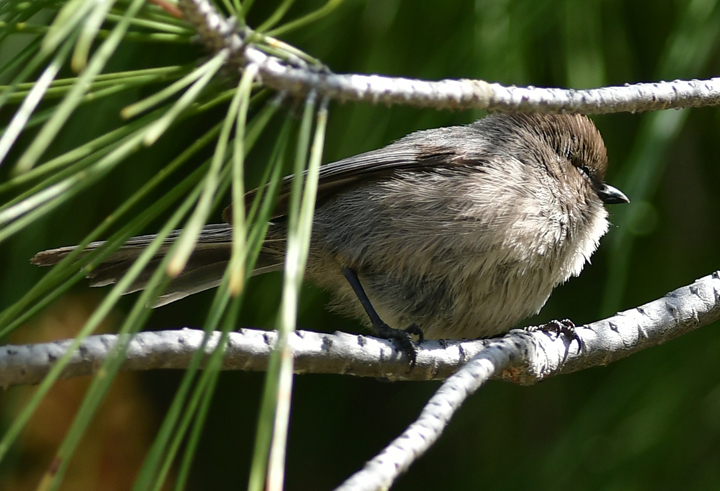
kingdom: Animalia
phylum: Chordata
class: Aves
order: Passeriformes
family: Aegithalidae
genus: Psaltriparus
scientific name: Psaltriparus minimus
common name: American bushtit
